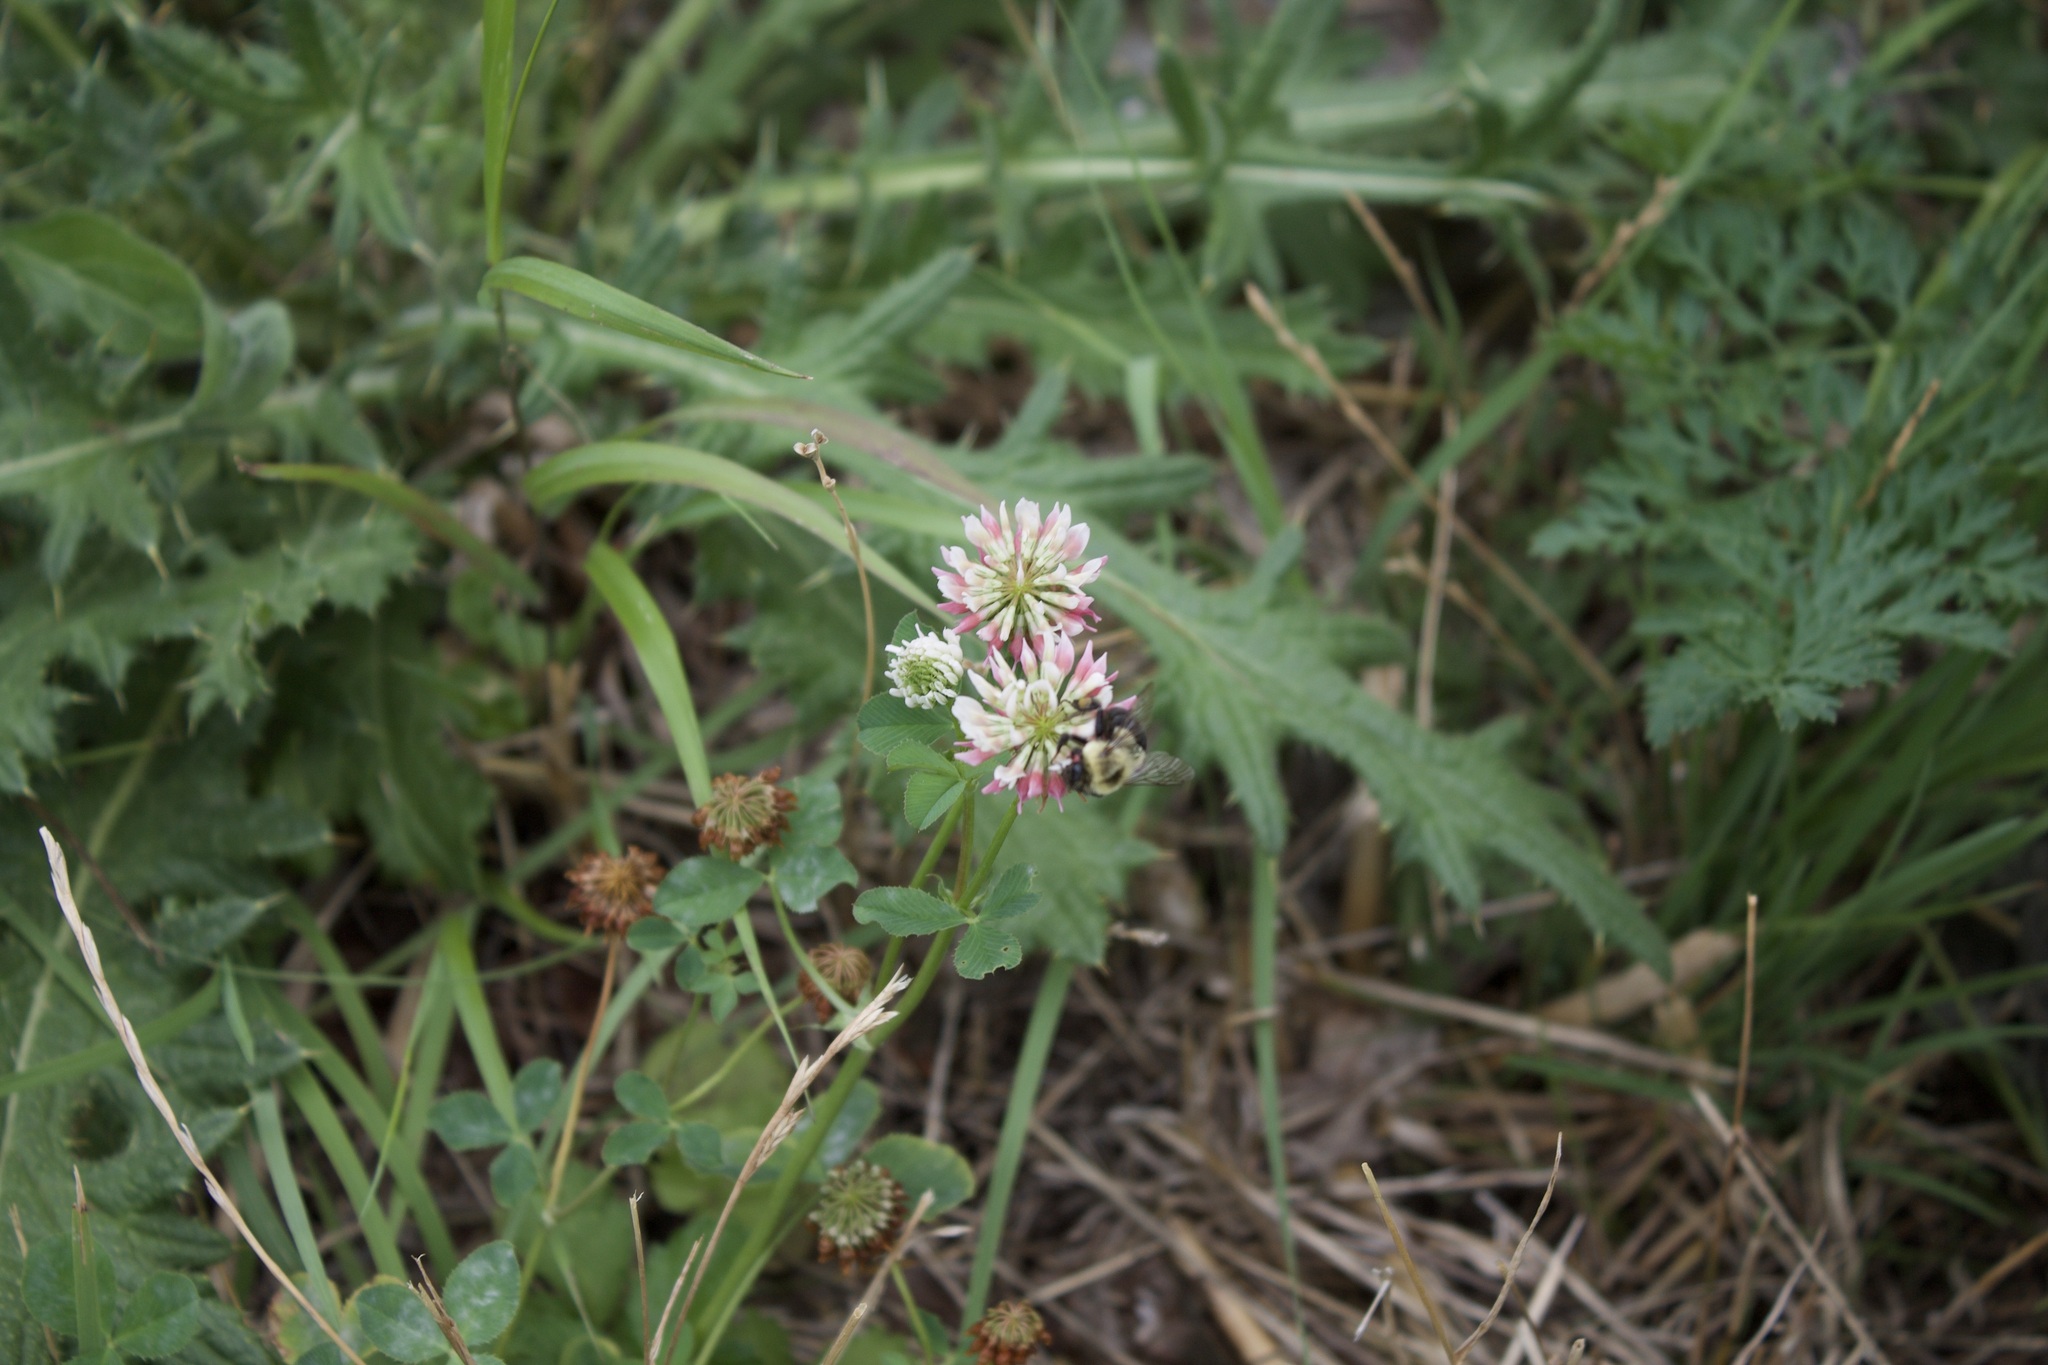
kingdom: Animalia
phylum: Arthropoda
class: Insecta
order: Hymenoptera
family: Apidae
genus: Bombus
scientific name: Bombus impatiens
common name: Common eastern bumble bee
